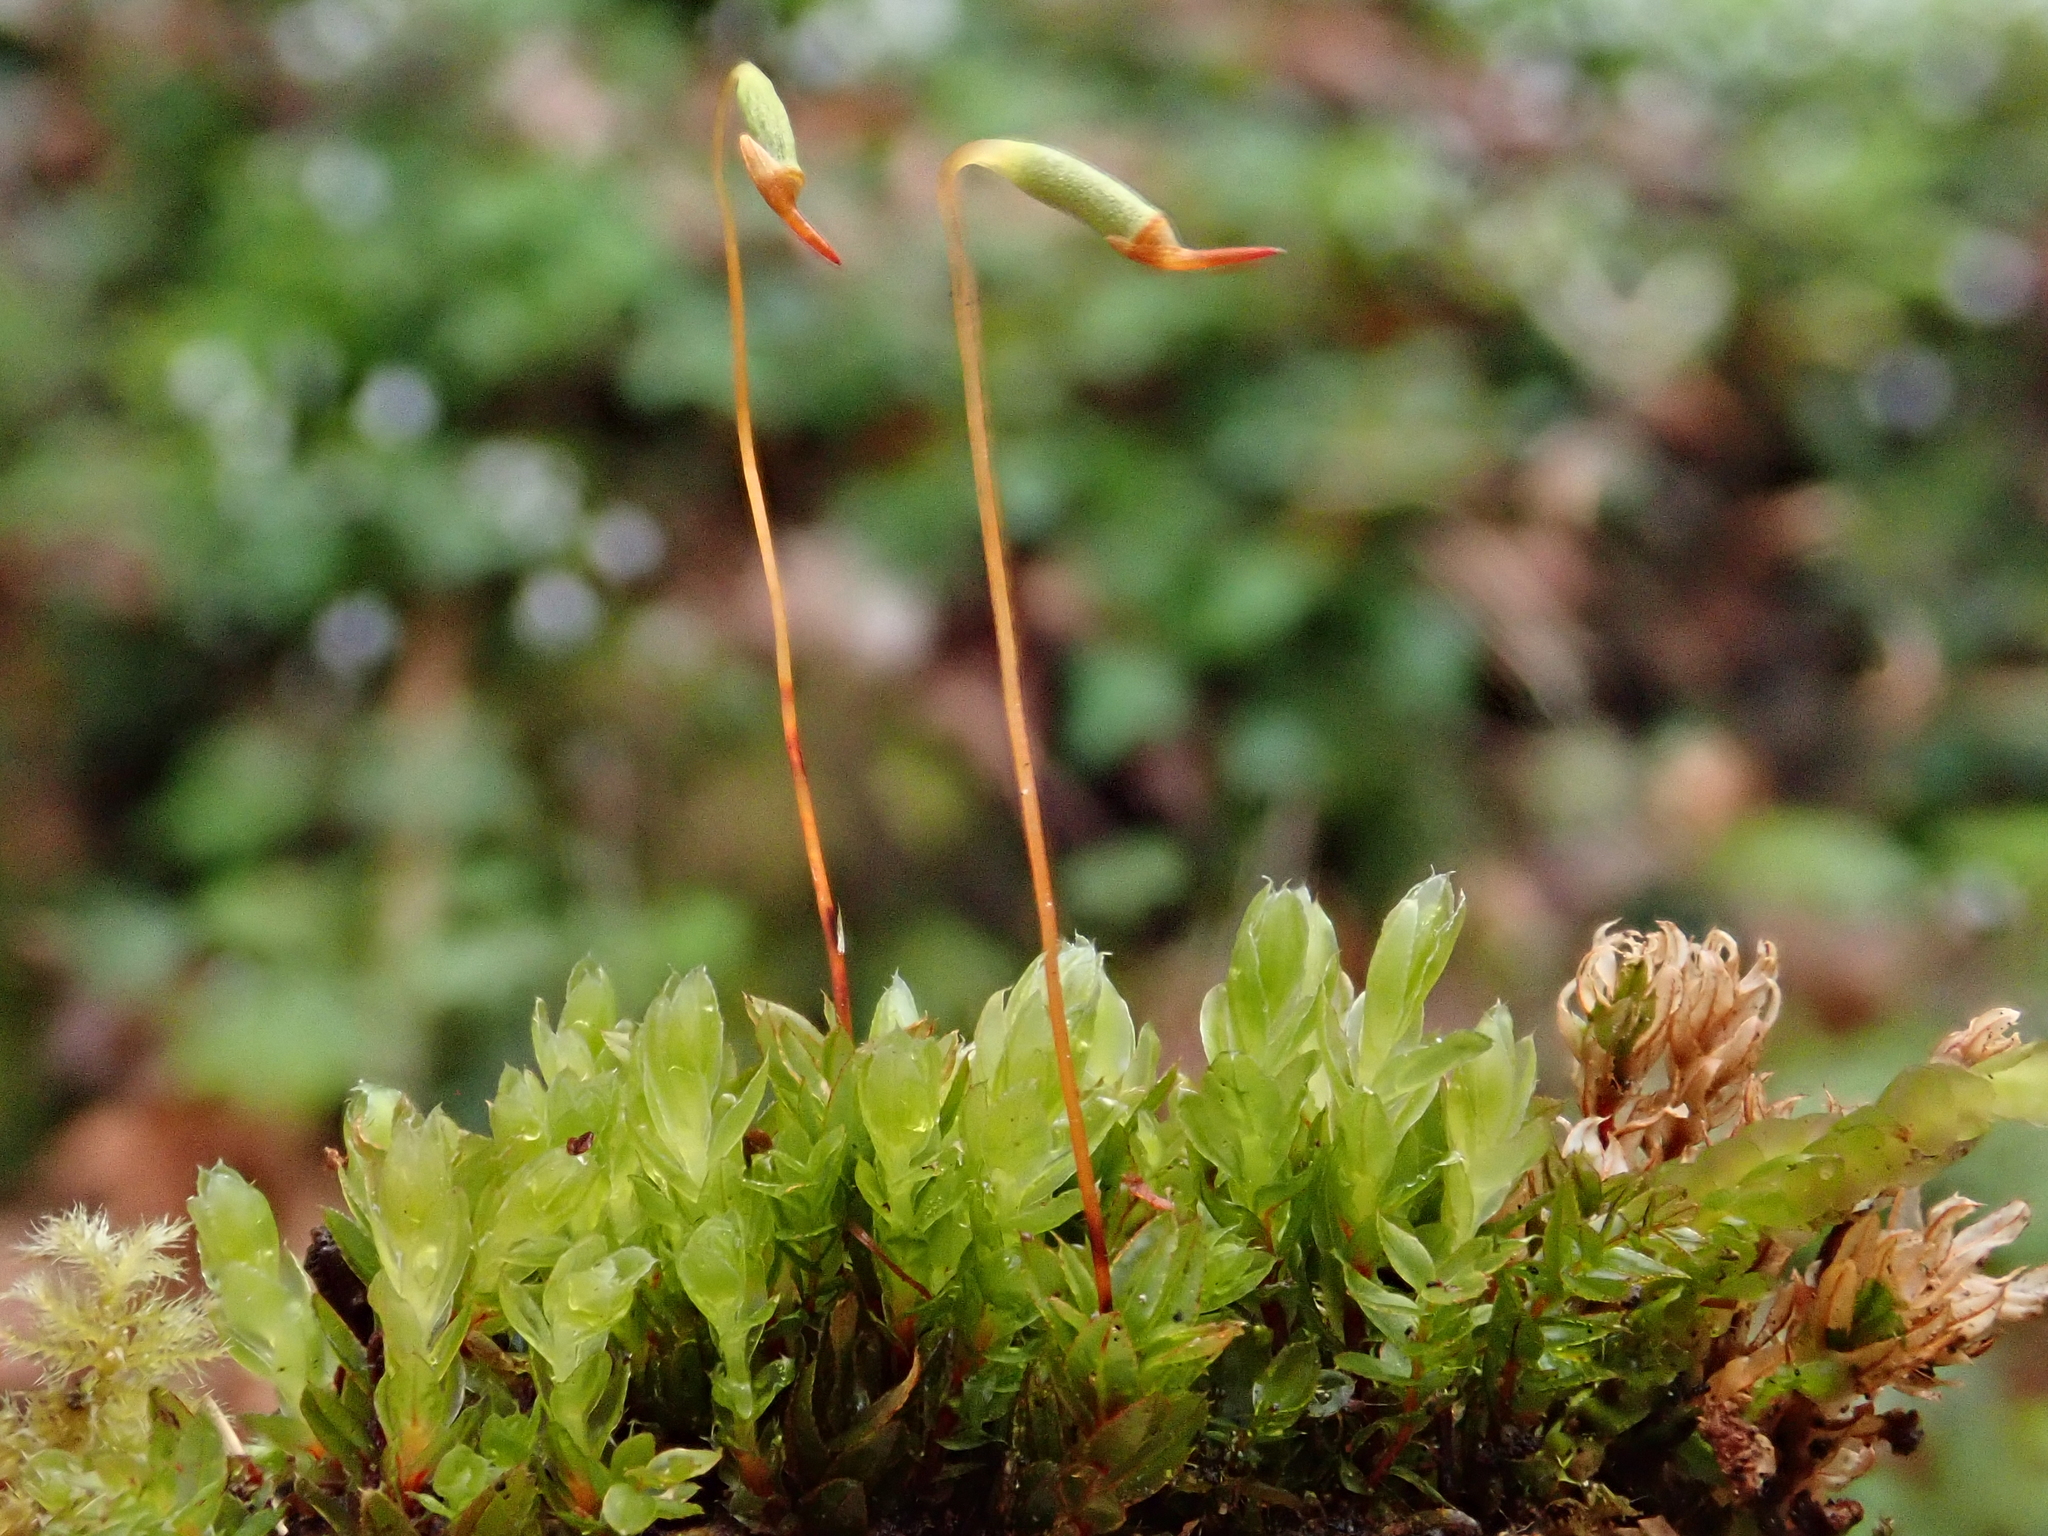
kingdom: Plantae
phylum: Bryophyta
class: Bryopsida
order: Bryales
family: Mniaceae
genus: Mnium
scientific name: Mnium marginatum
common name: Bordered leafy moss
